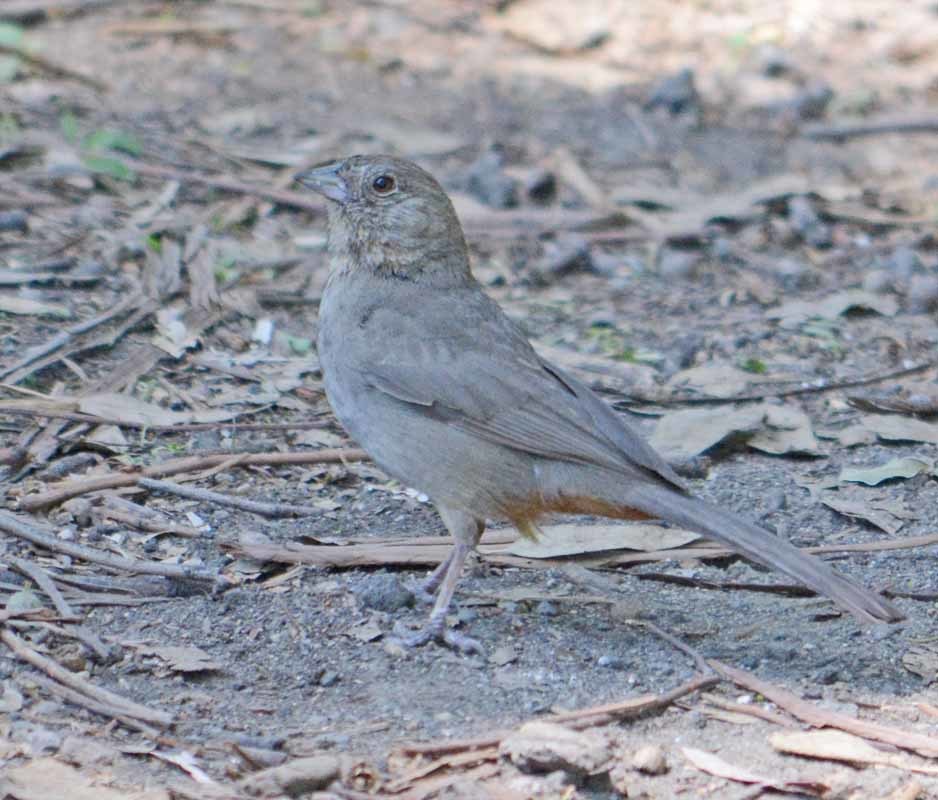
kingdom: Animalia
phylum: Chordata
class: Aves
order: Passeriformes
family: Passerellidae
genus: Melozone
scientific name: Melozone fusca
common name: Canyon towhee
